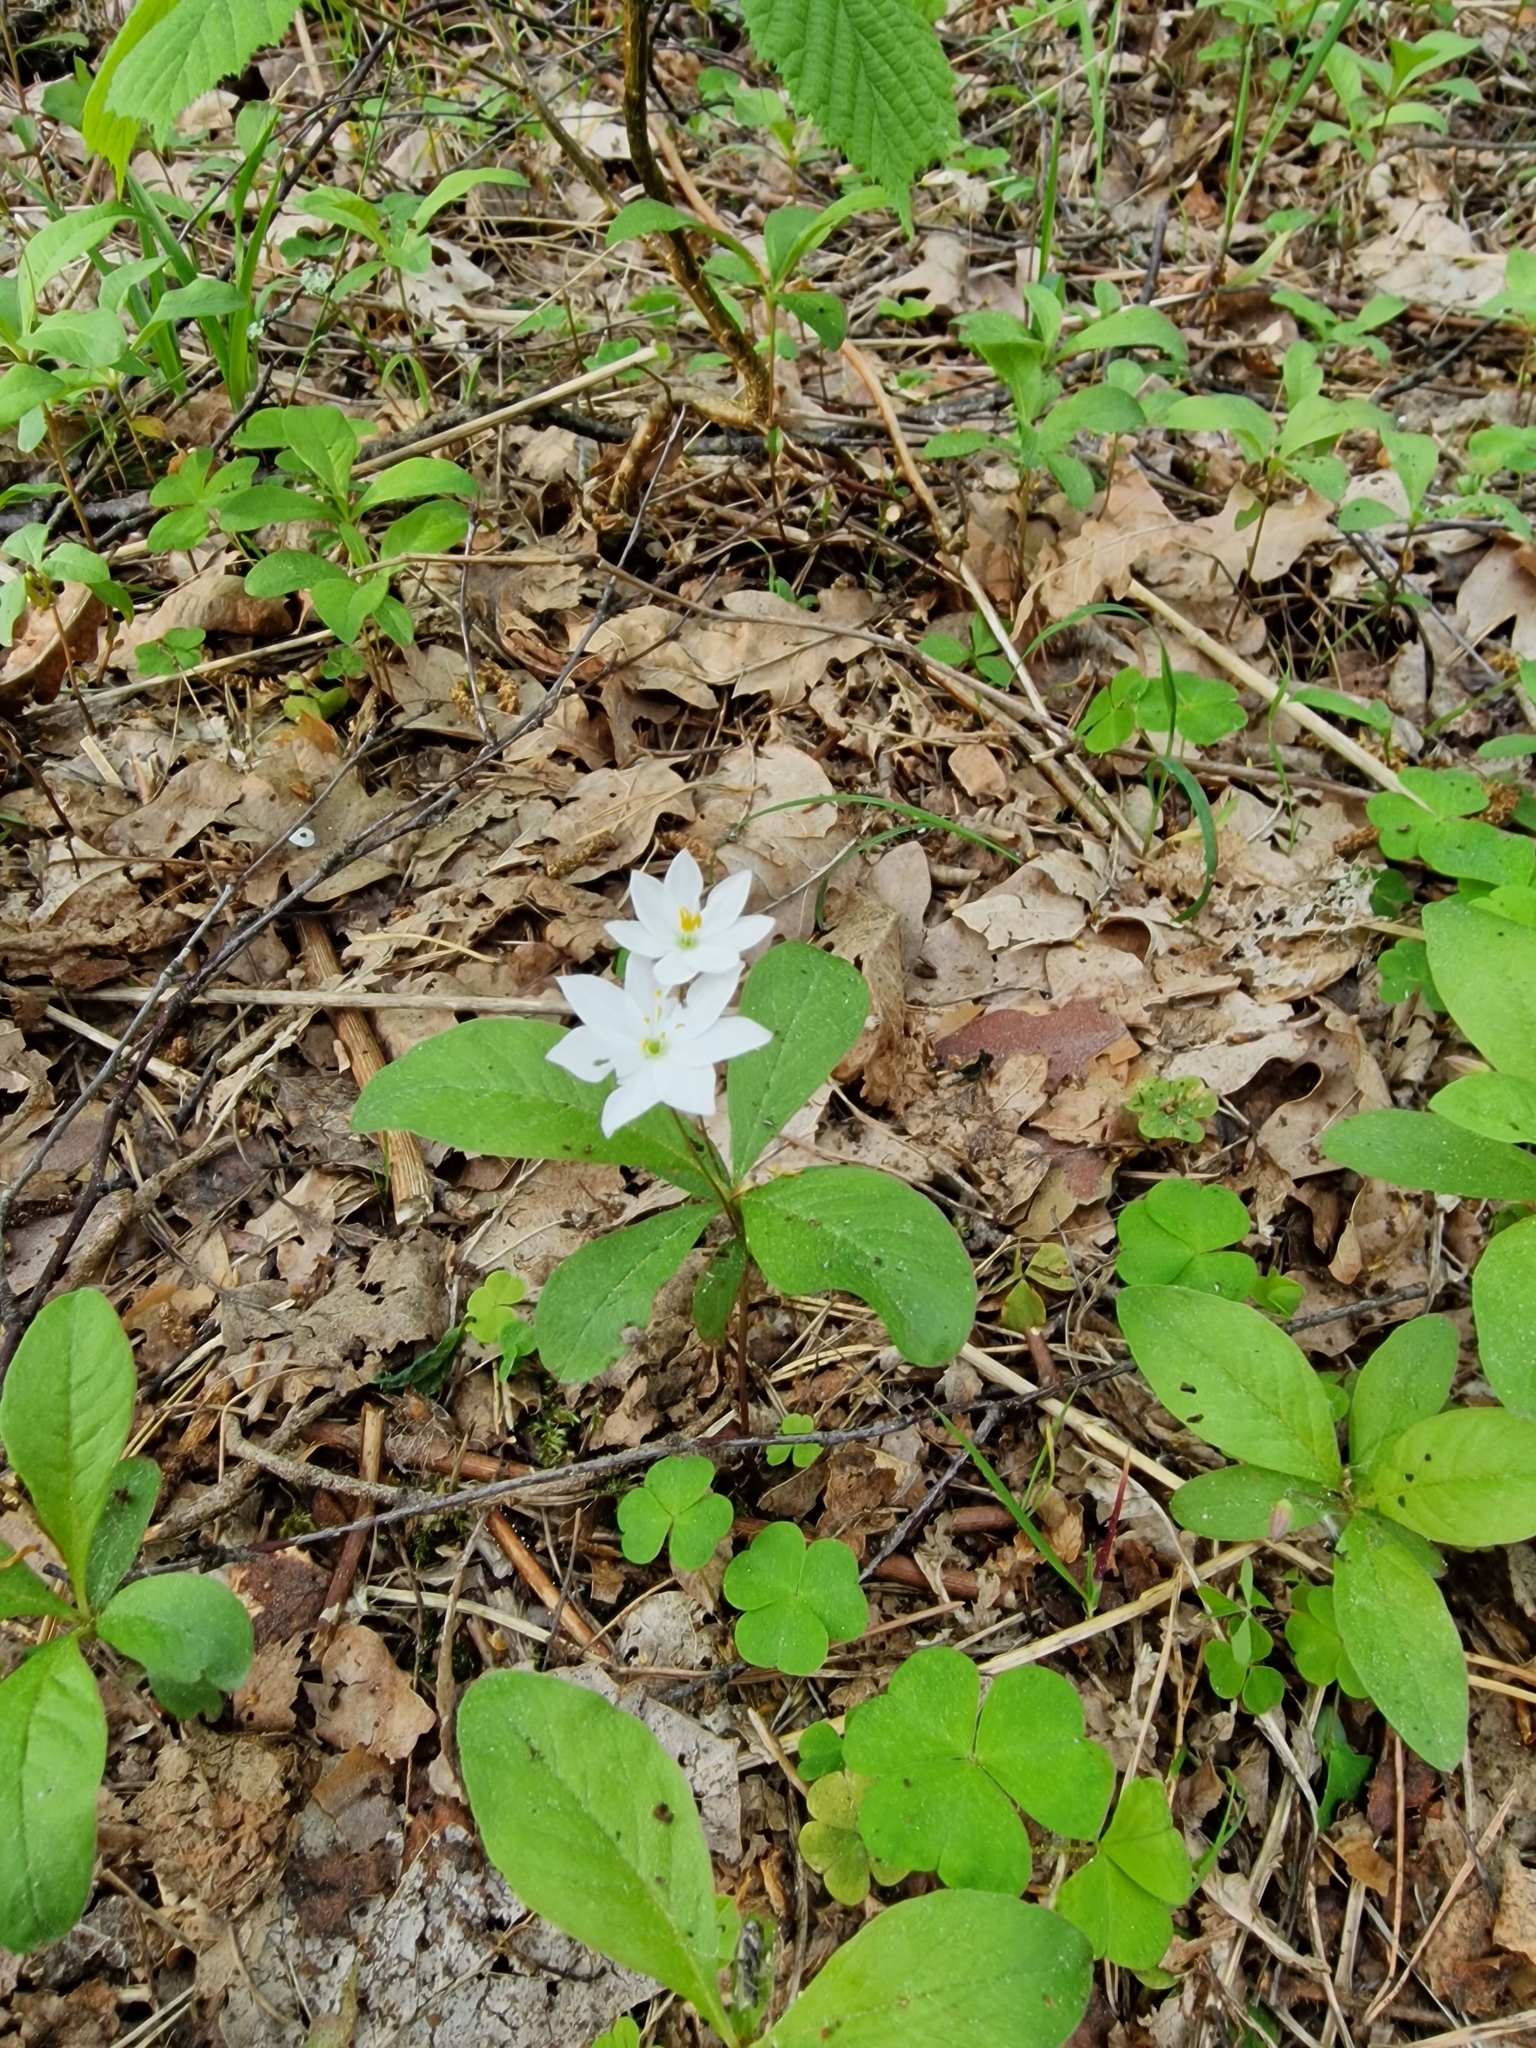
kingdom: Plantae
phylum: Tracheophyta
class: Magnoliopsida
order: Ericales
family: Primulaceae
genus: Lysimachia
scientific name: Lysimachia europaea
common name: Arctic starflower
